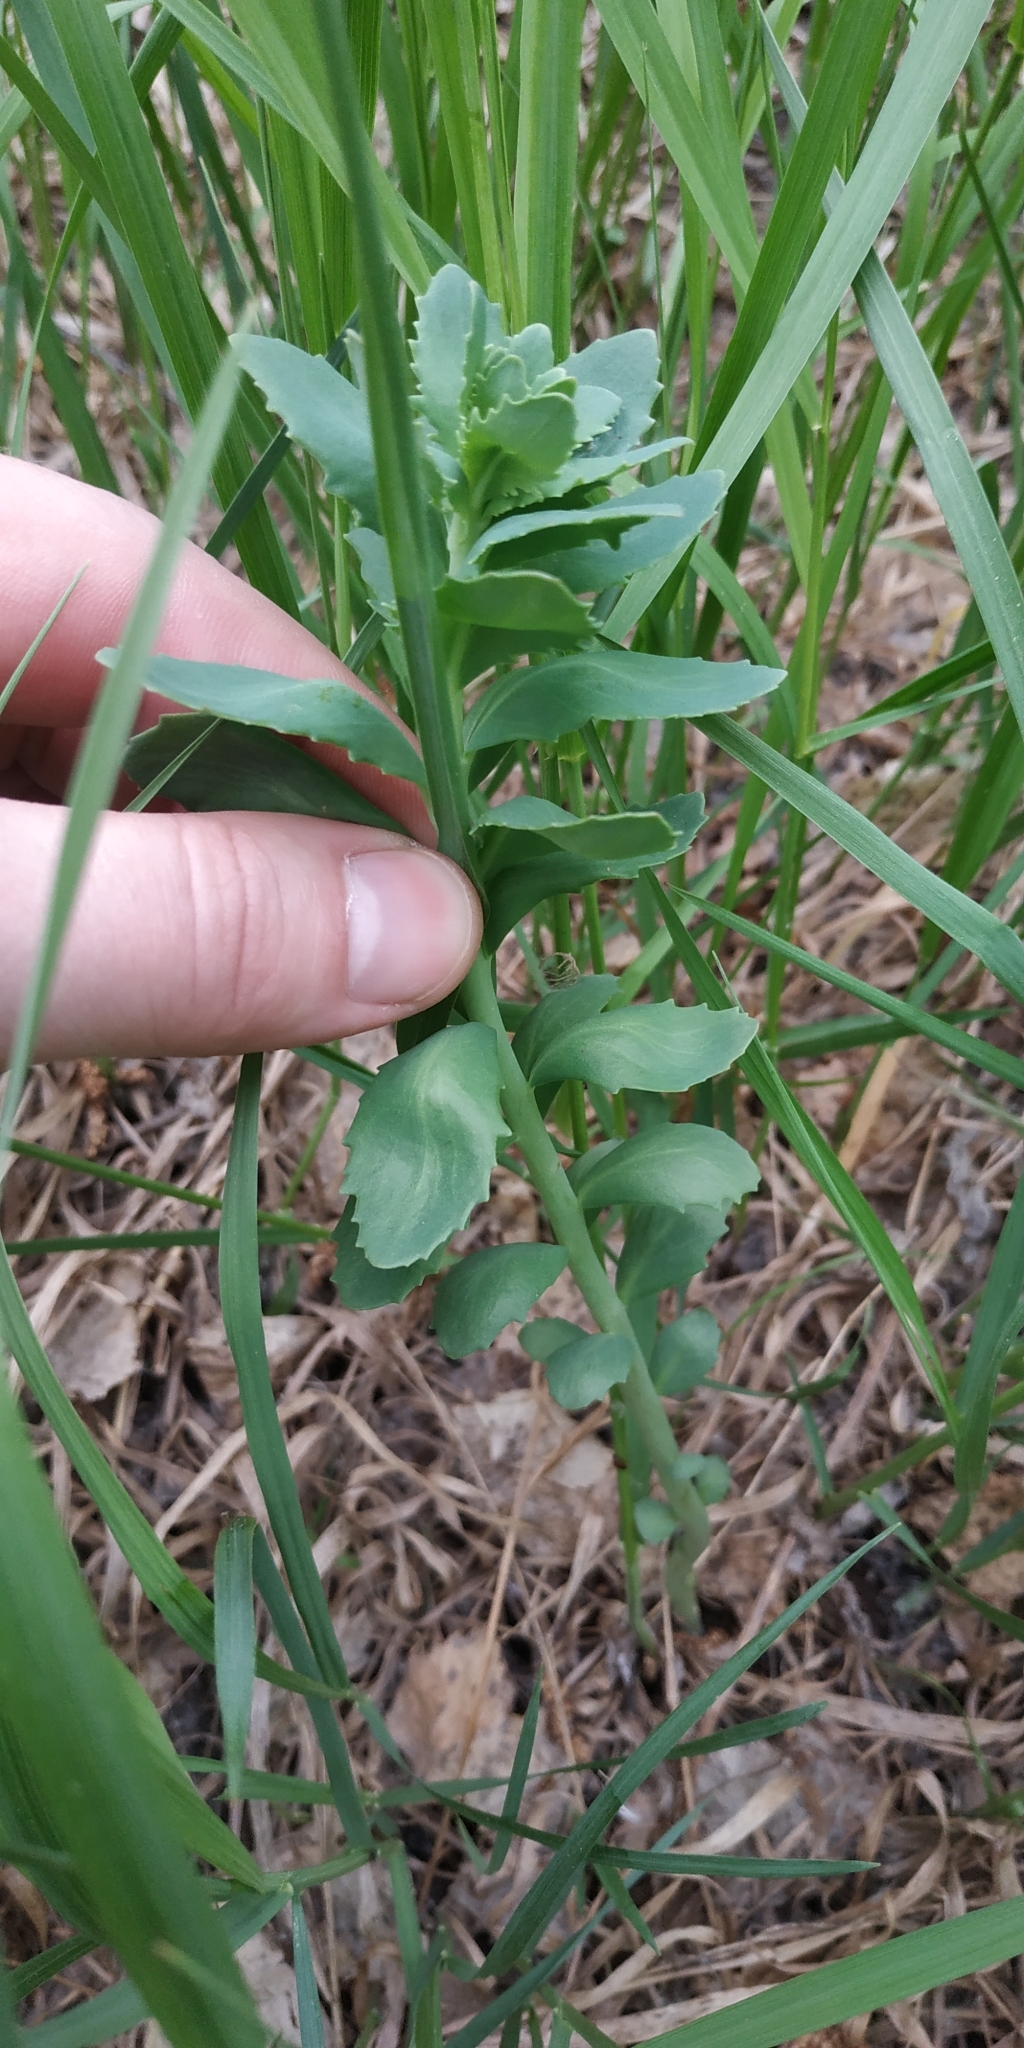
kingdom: Plantae
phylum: Tracheophyta
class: Magnoliopsida
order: Saxifragales
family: Crassulaceae
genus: Hylotelephium
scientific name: Hylotelephium telephium
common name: Live-forever
